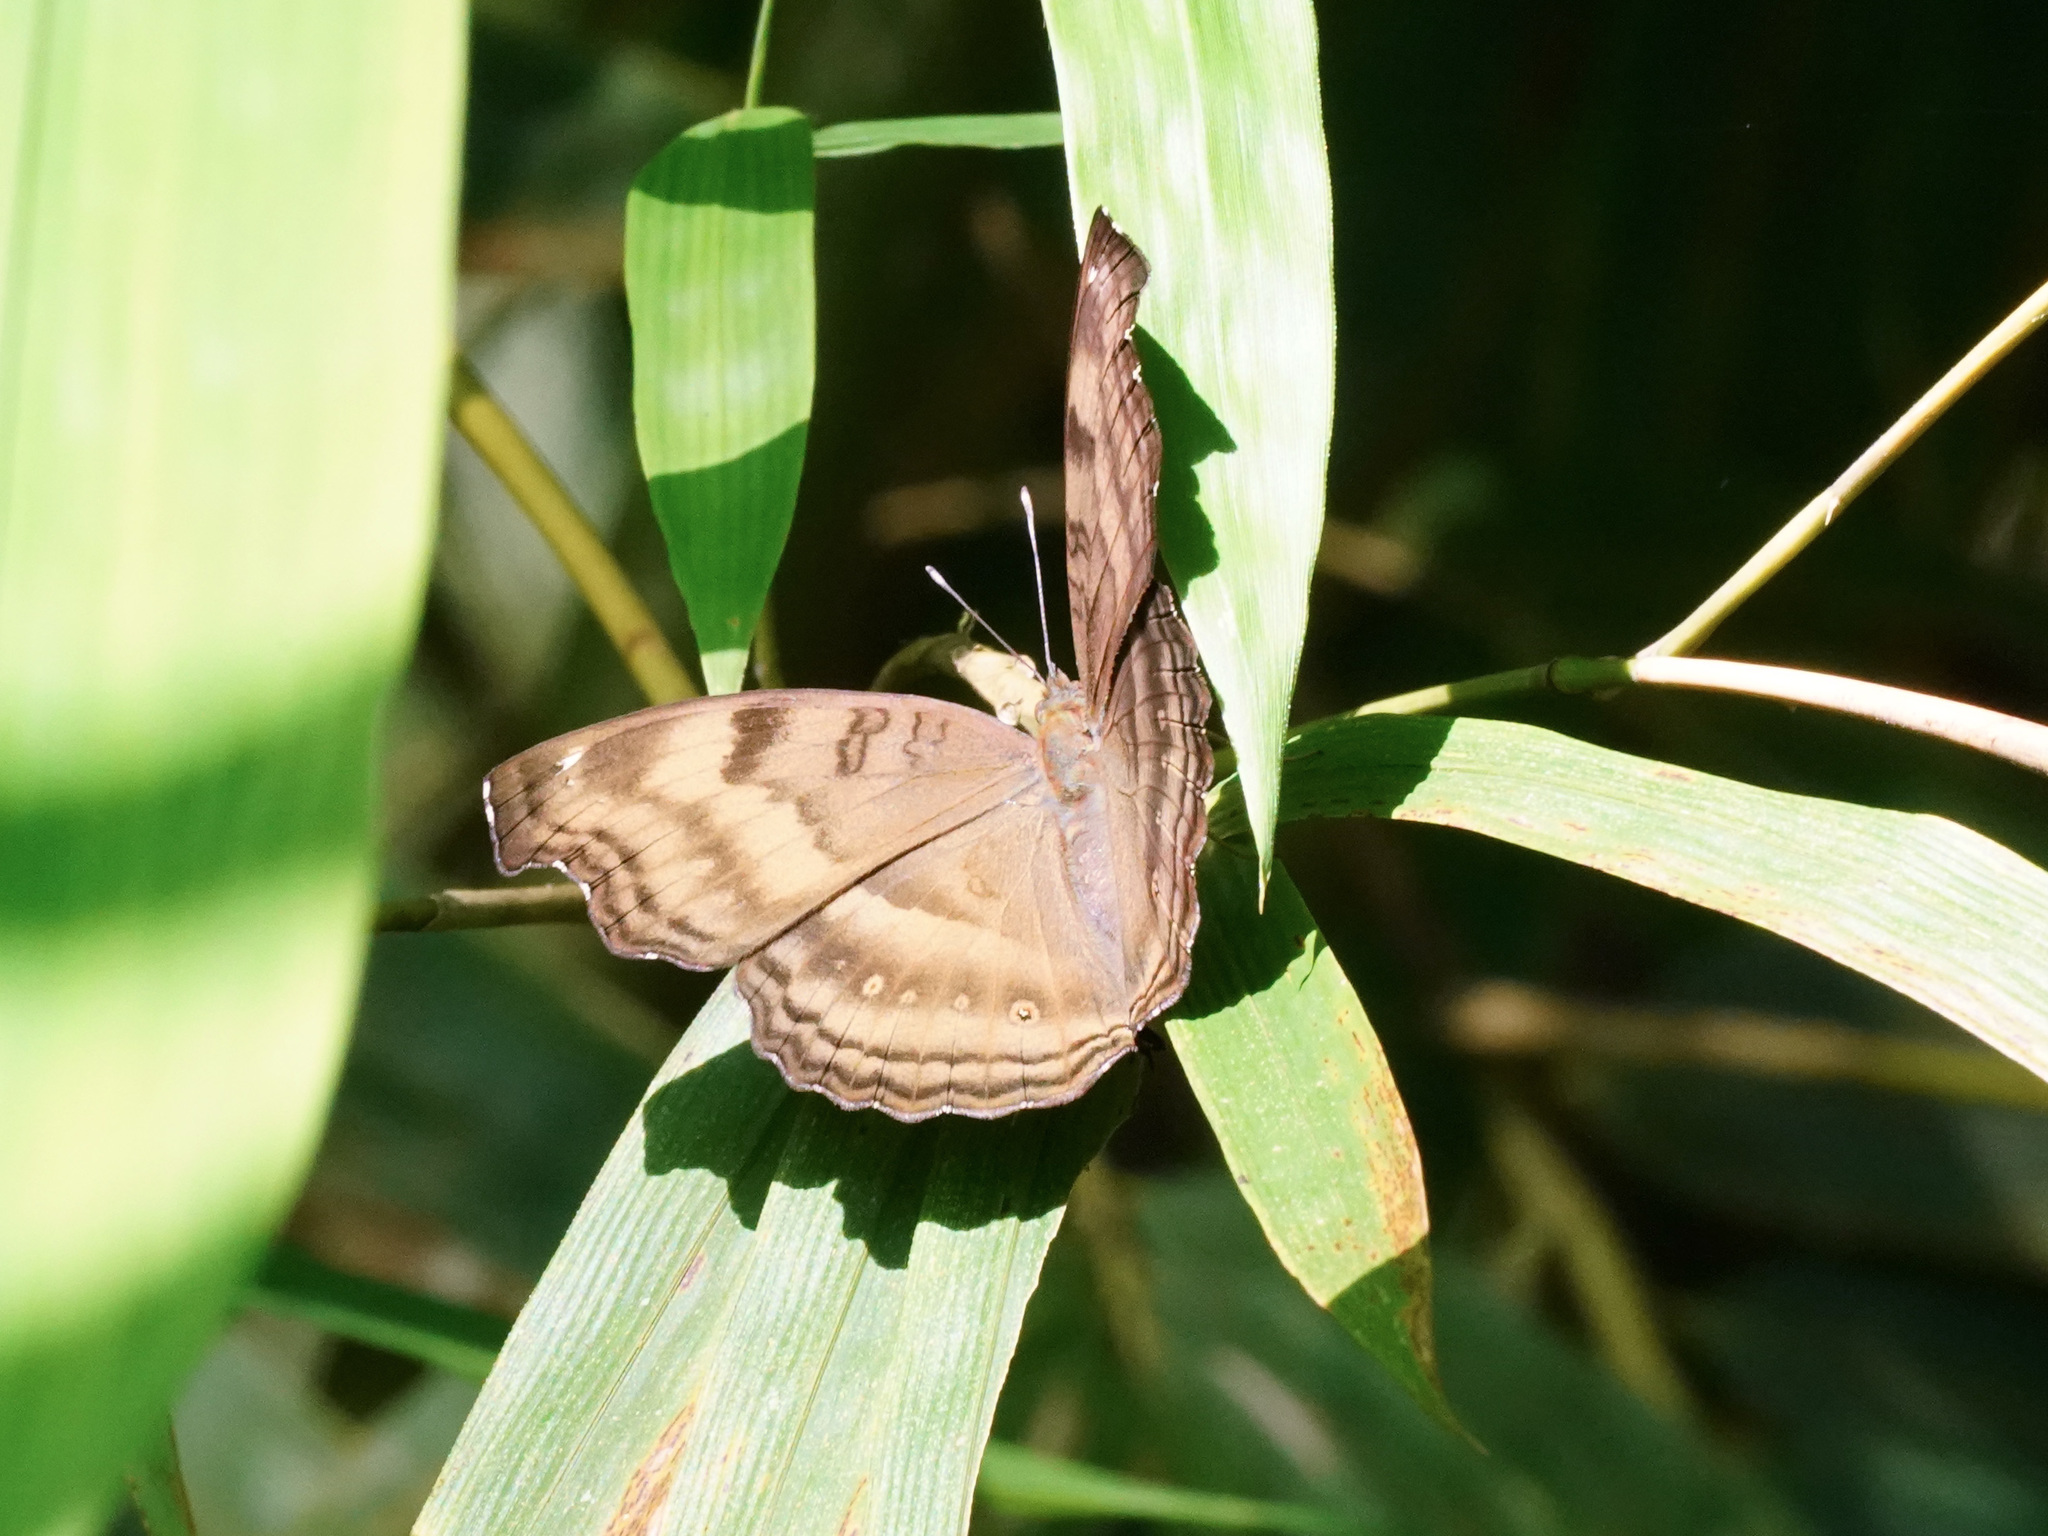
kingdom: Animalia
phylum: Arthropoda
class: Insecta
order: Lepidoptera
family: Nymphalidae
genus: Junonia
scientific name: Junonia iphita
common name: Chocolate pansy
